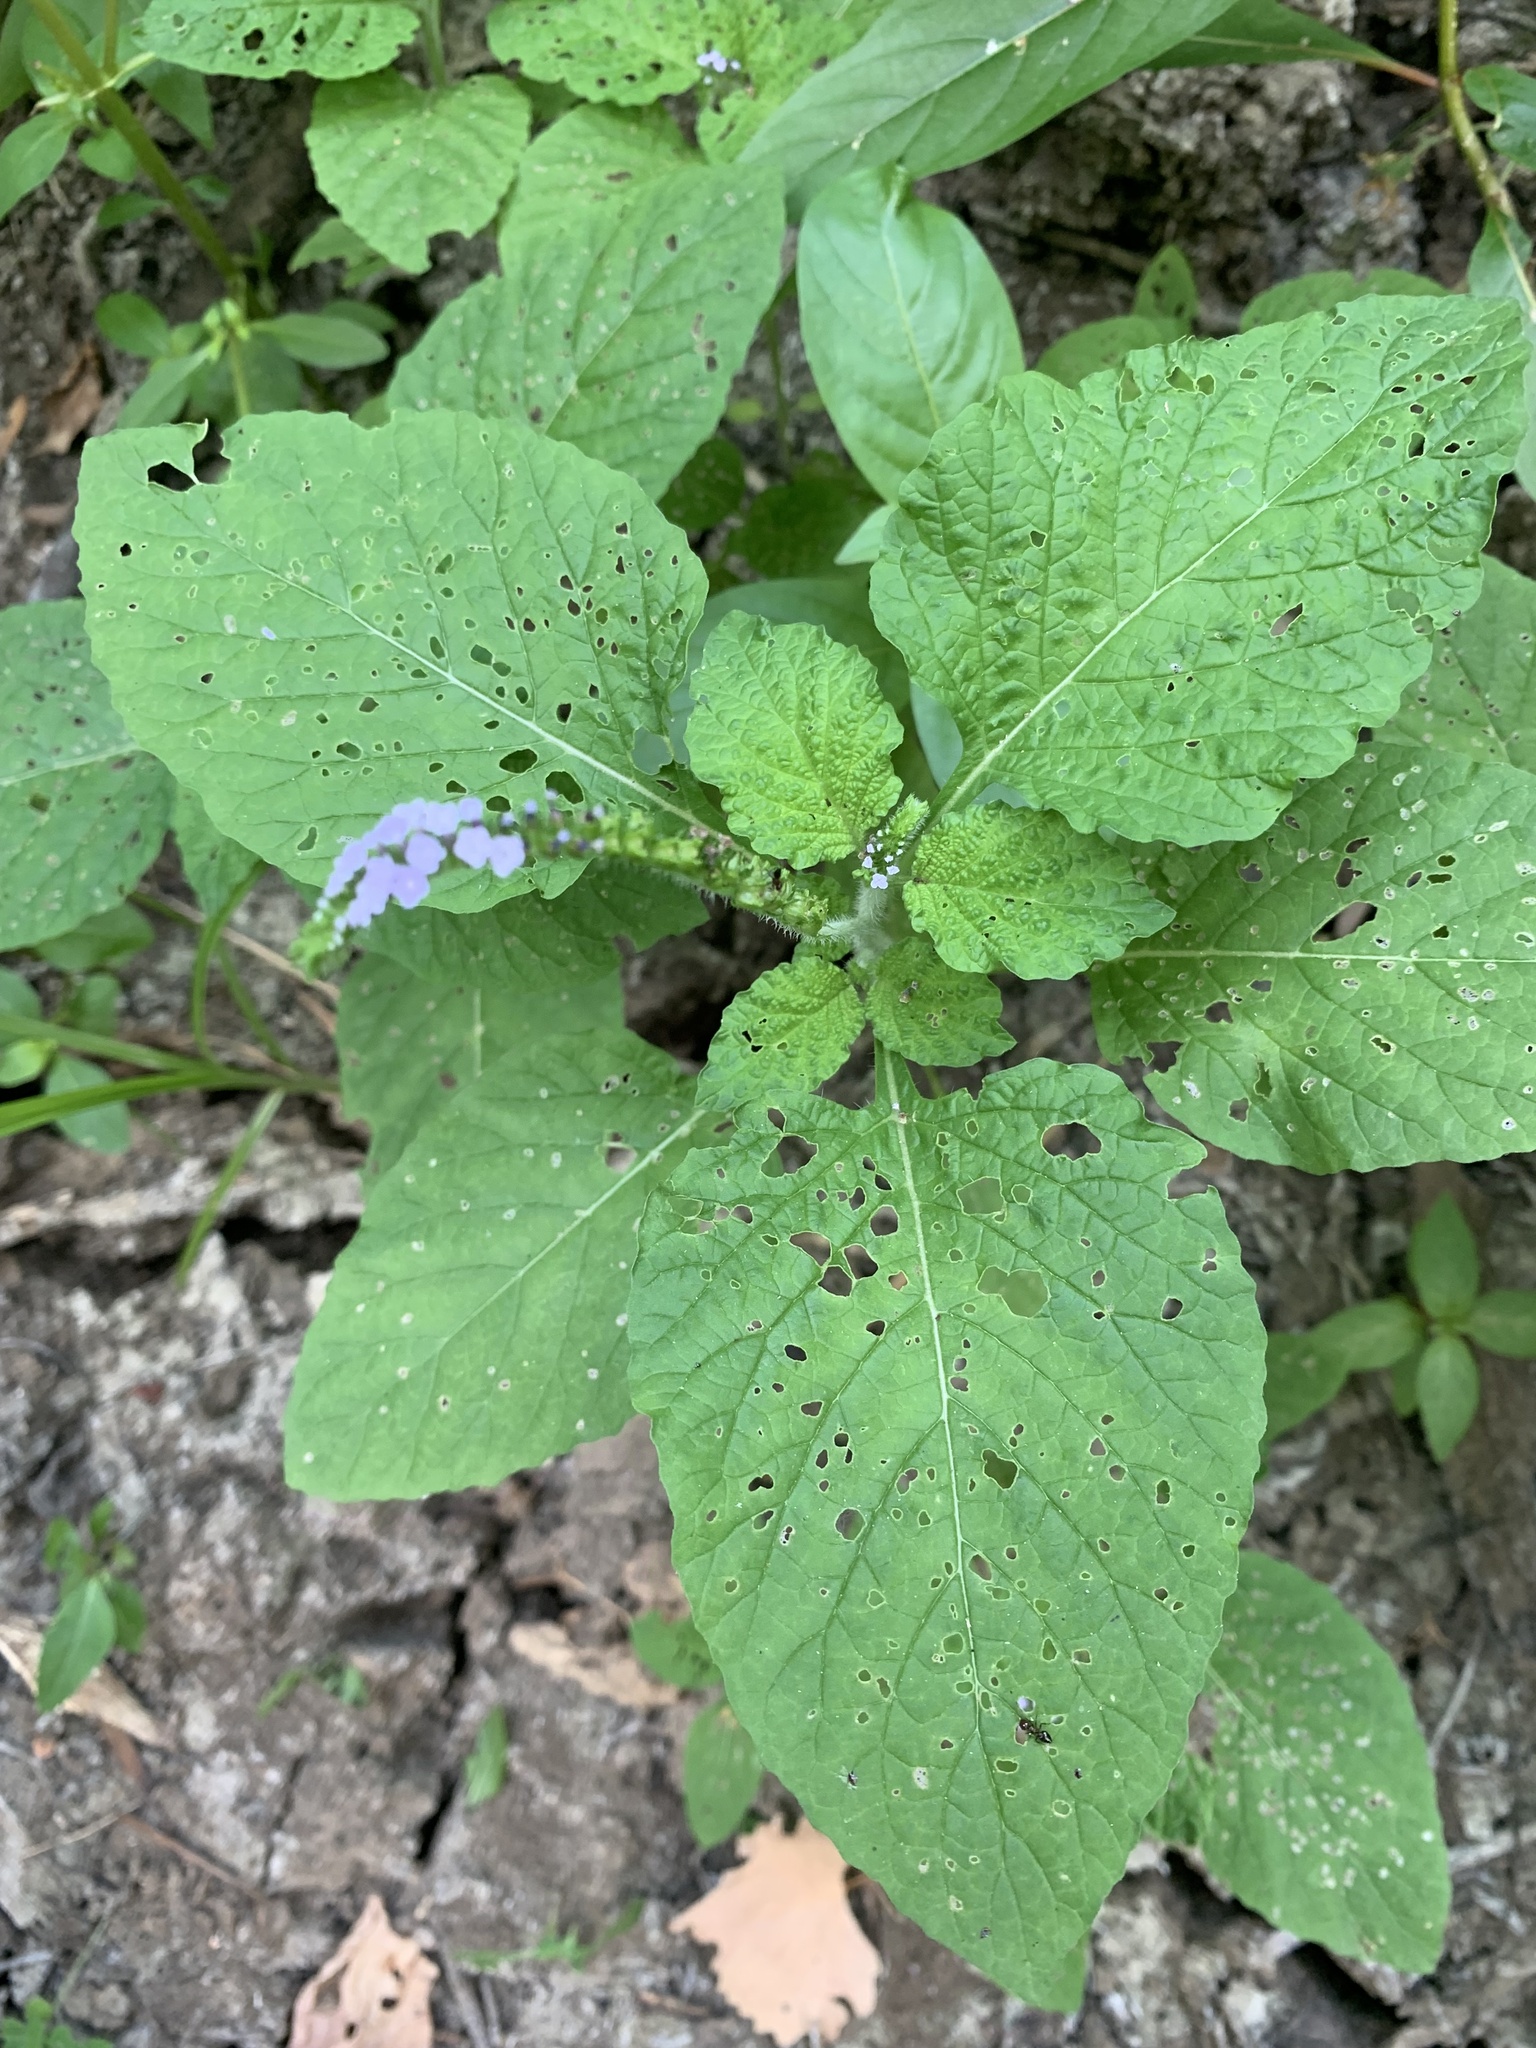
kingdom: Plantae
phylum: Tracheophyta
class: Magnoliopsida
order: Boraginales
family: Heliotropiaceae
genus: Heliotropium
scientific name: Heliotropium indicum
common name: Indian heliotrope
